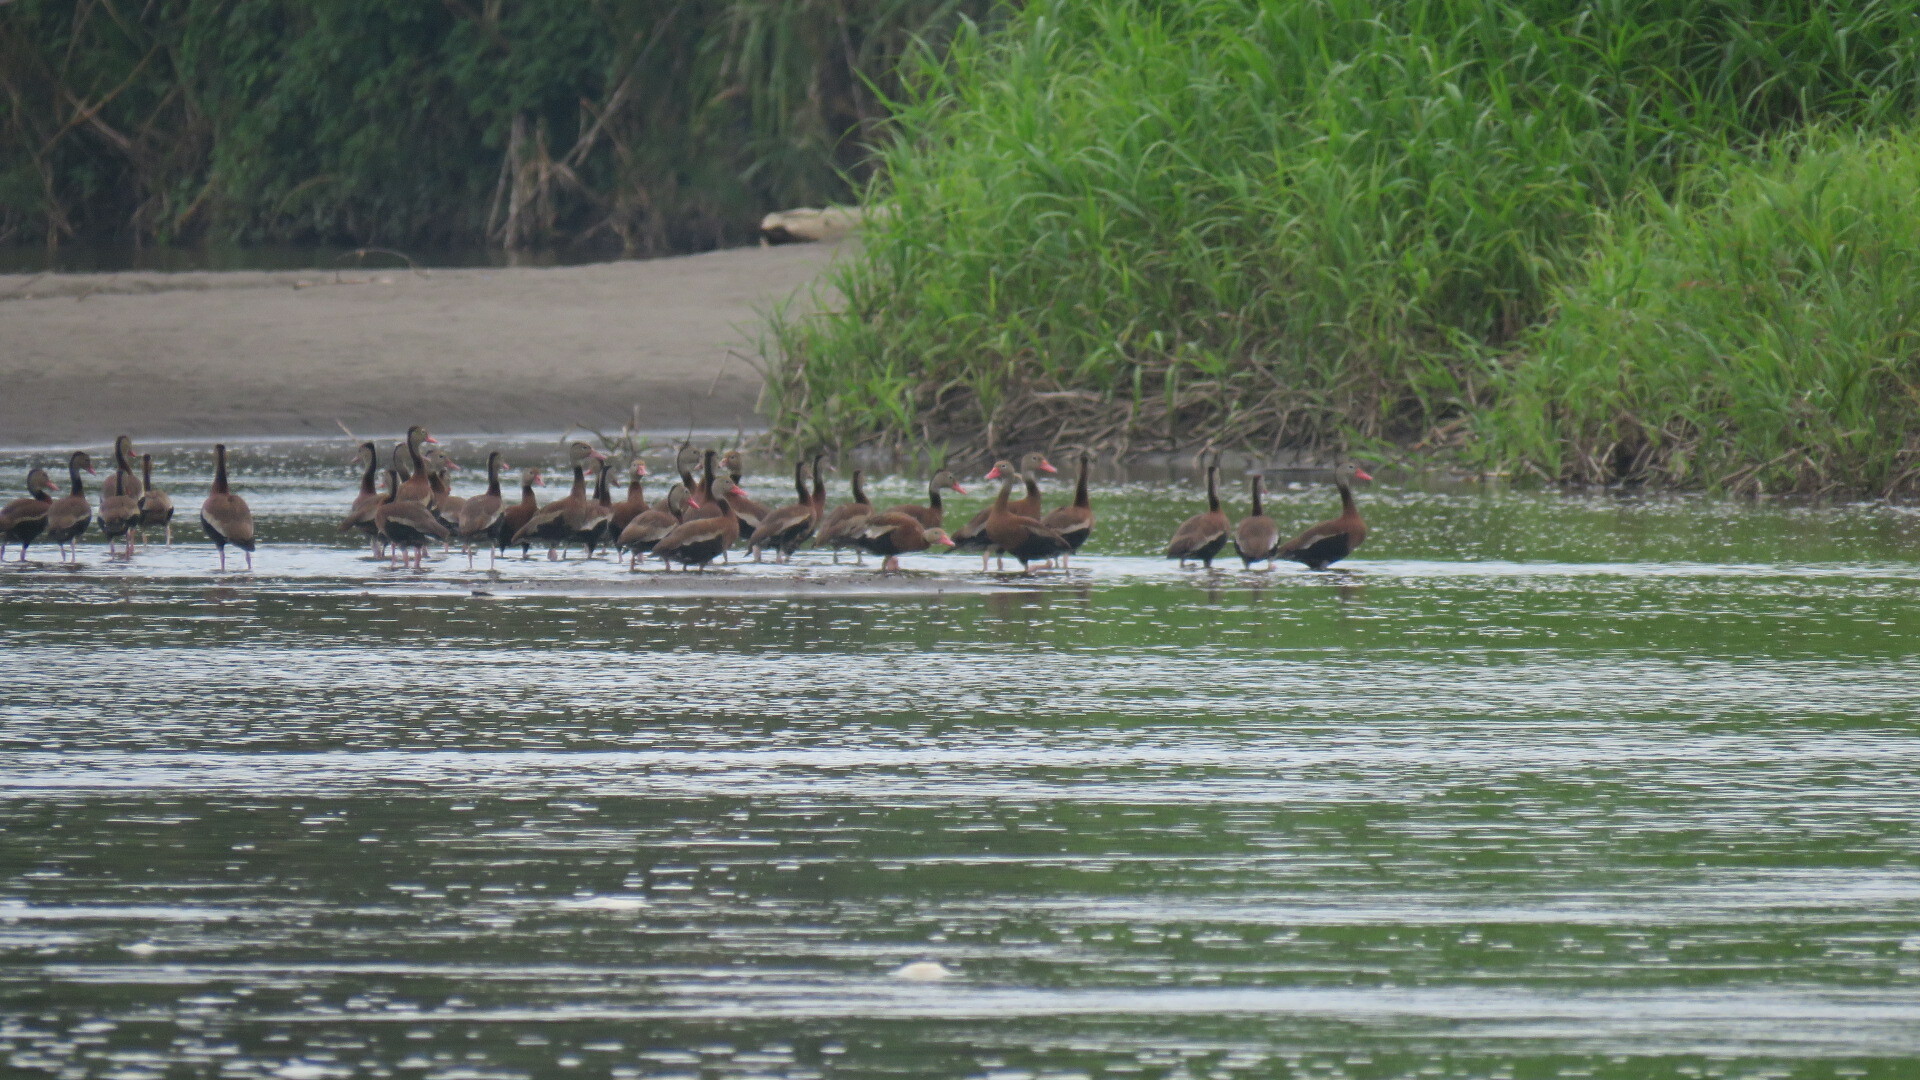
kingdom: Animalia
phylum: Chordata
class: Aves
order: Anseriformes
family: Anatidae
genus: Dendrocygna
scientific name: Dendrocygna autumnalis
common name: Black-bellied whistling duck
